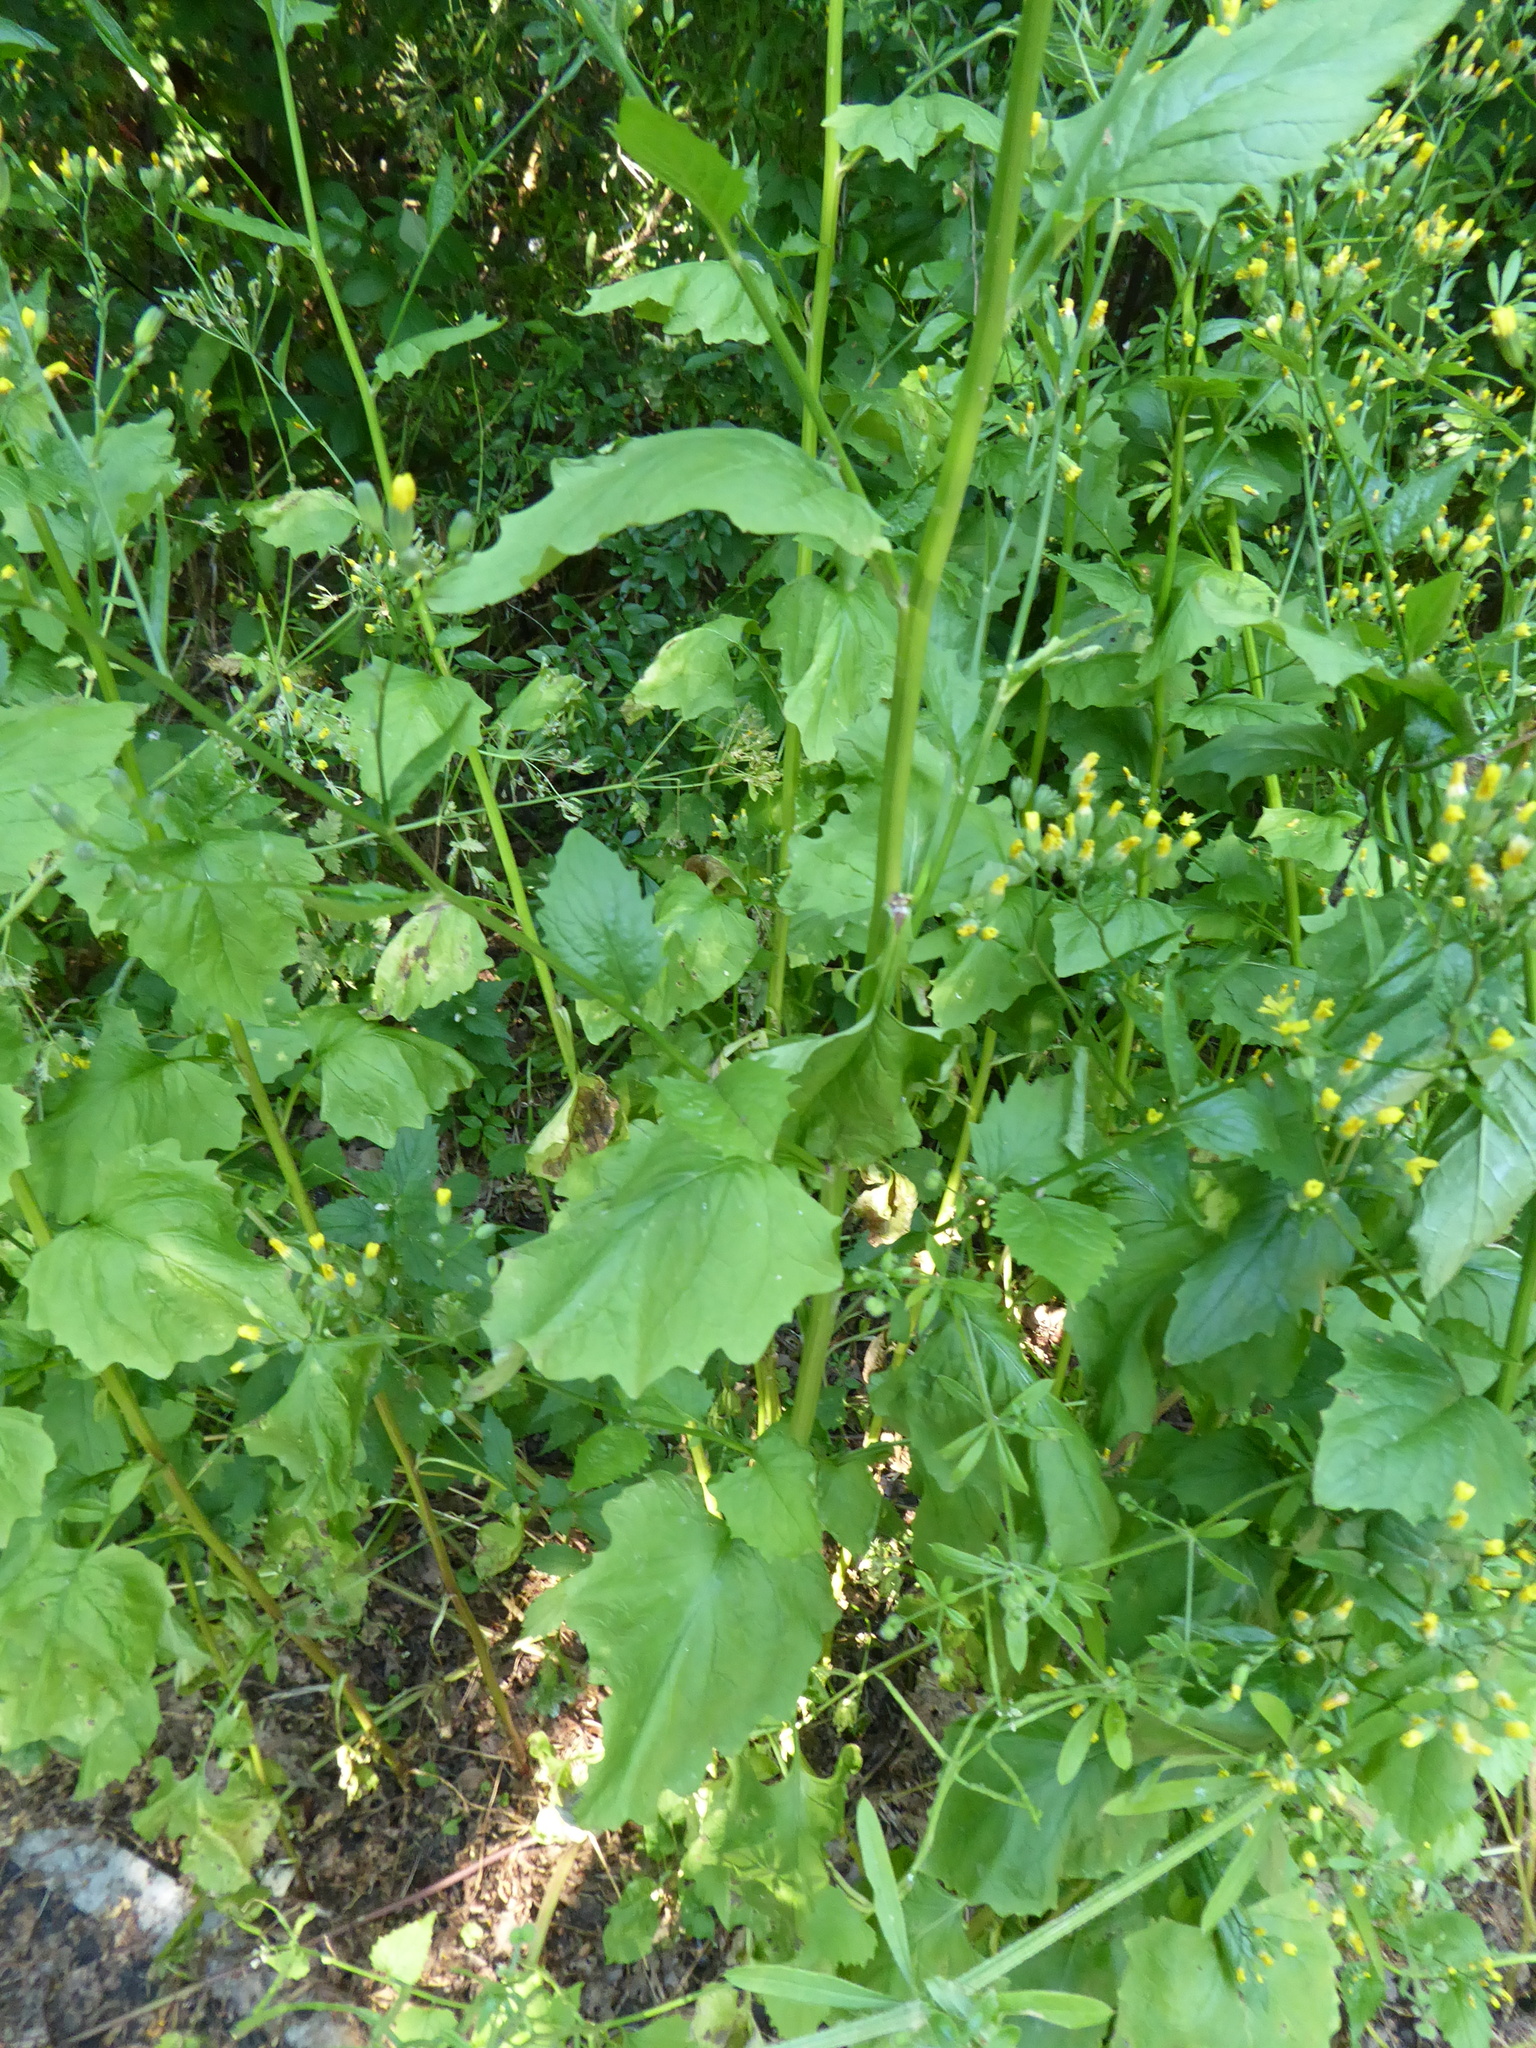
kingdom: Plantae
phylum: Tracheophyta
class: Magnoliopsida
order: Asterales
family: Asteraceae
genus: Lapsana
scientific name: Lapsana communis
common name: Nipplewort
